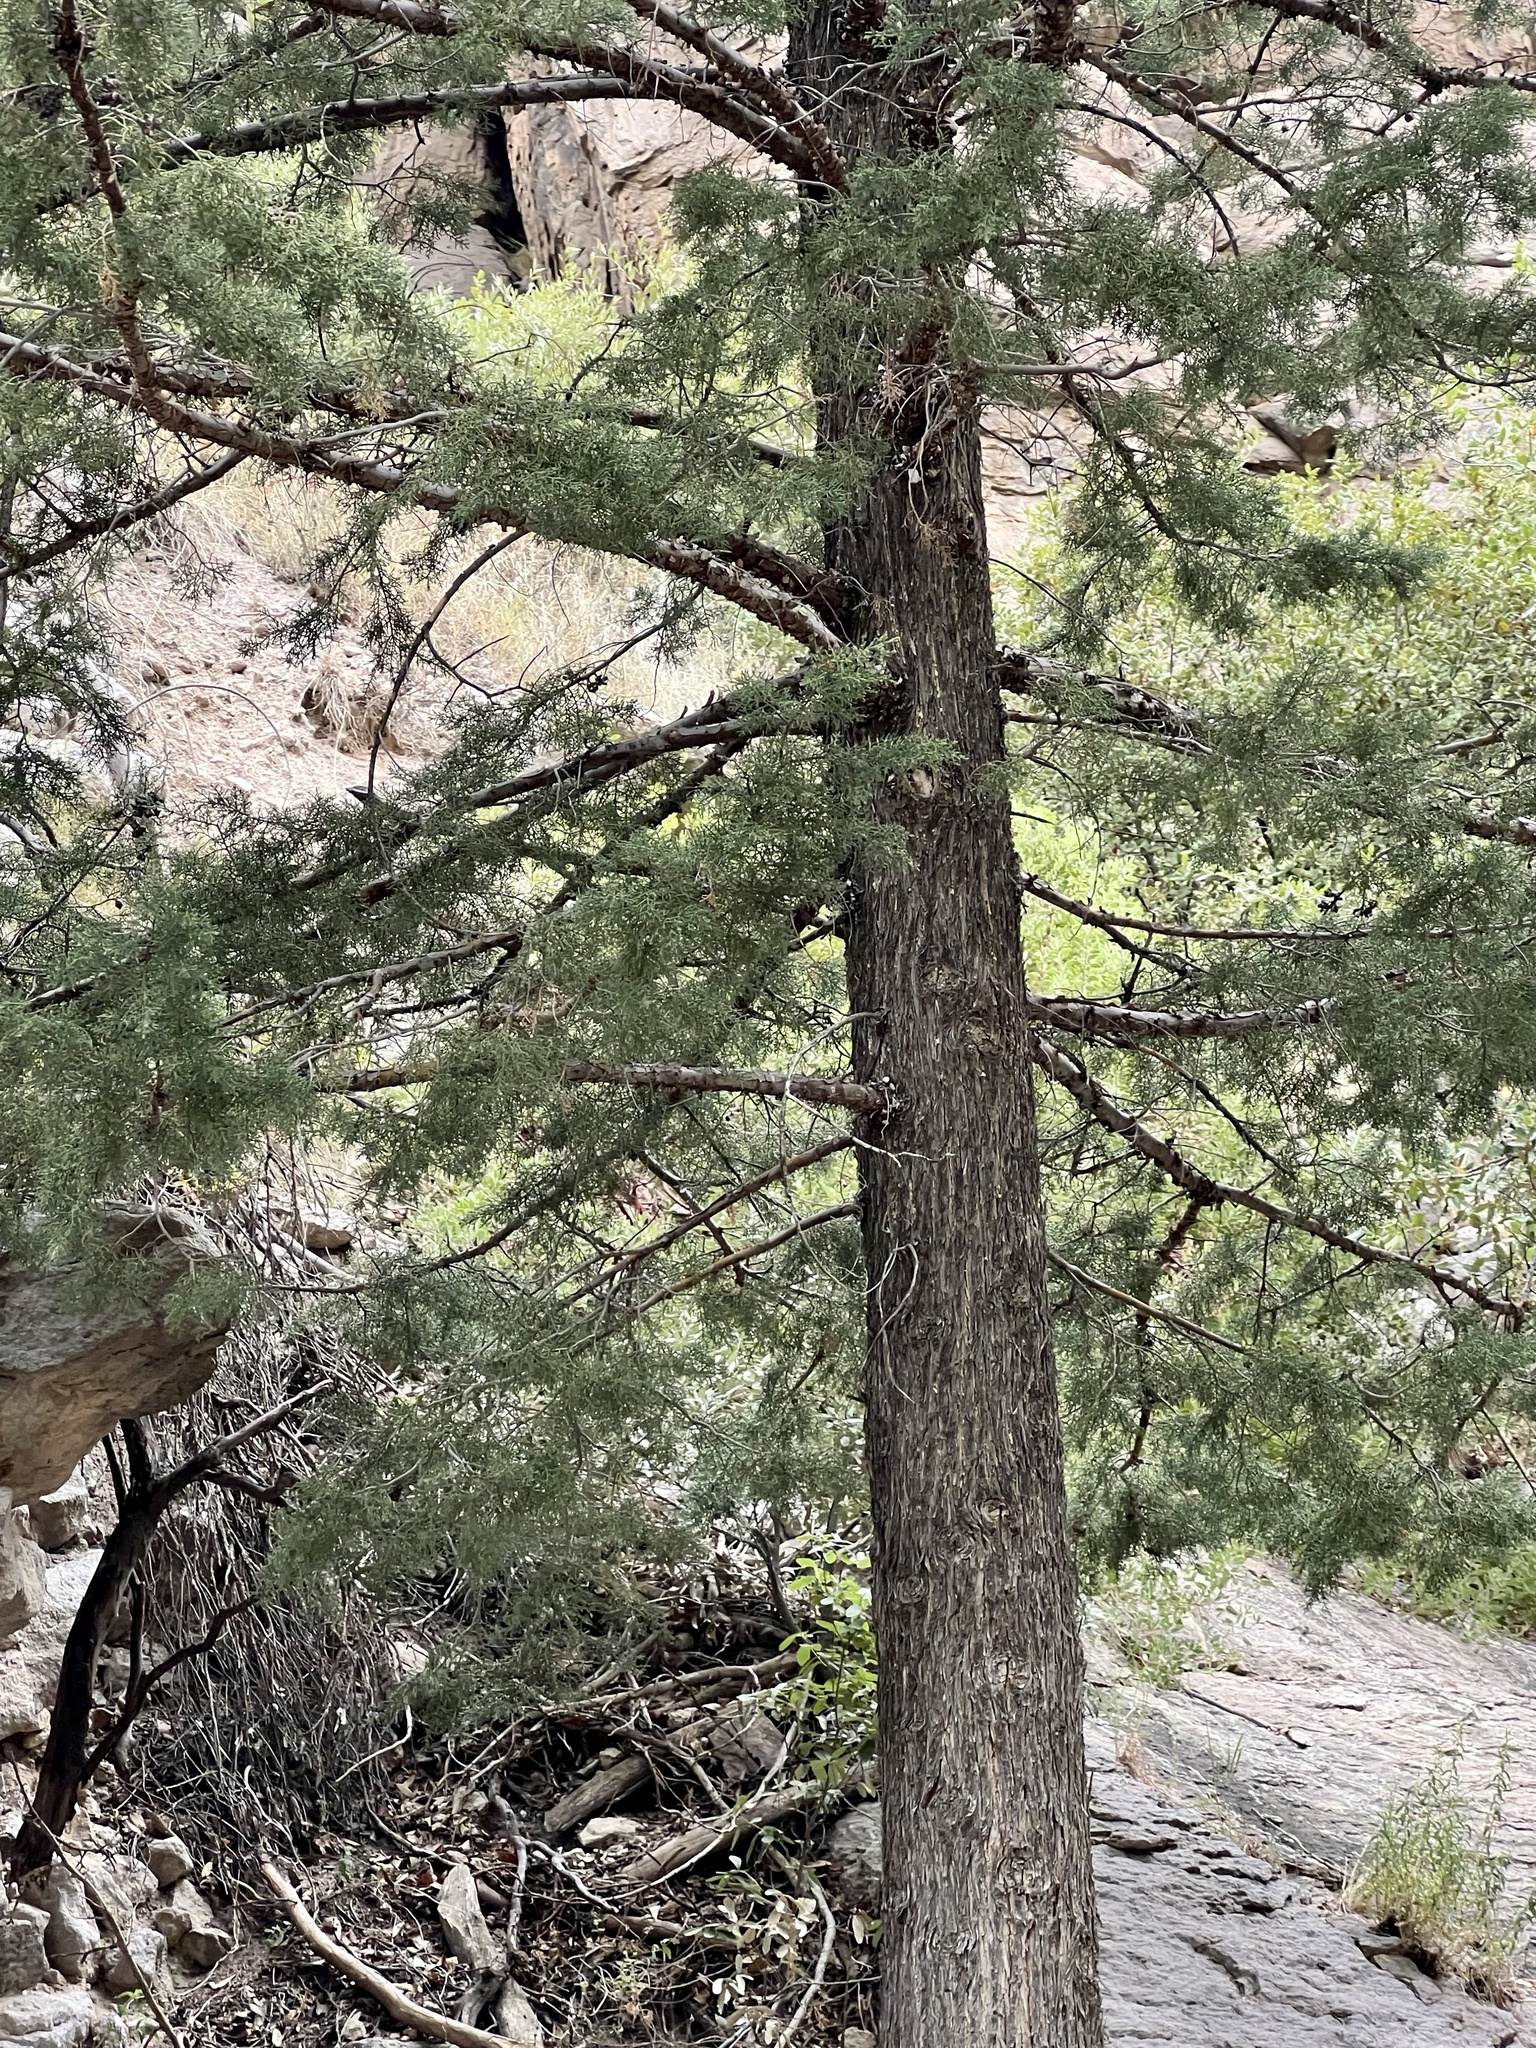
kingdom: Plantae
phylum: Tracheophyta
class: Pinopsida
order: Pinales
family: Cupressaceae
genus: Cupressus
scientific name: Cupressus arizonica
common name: Arizona cypress
